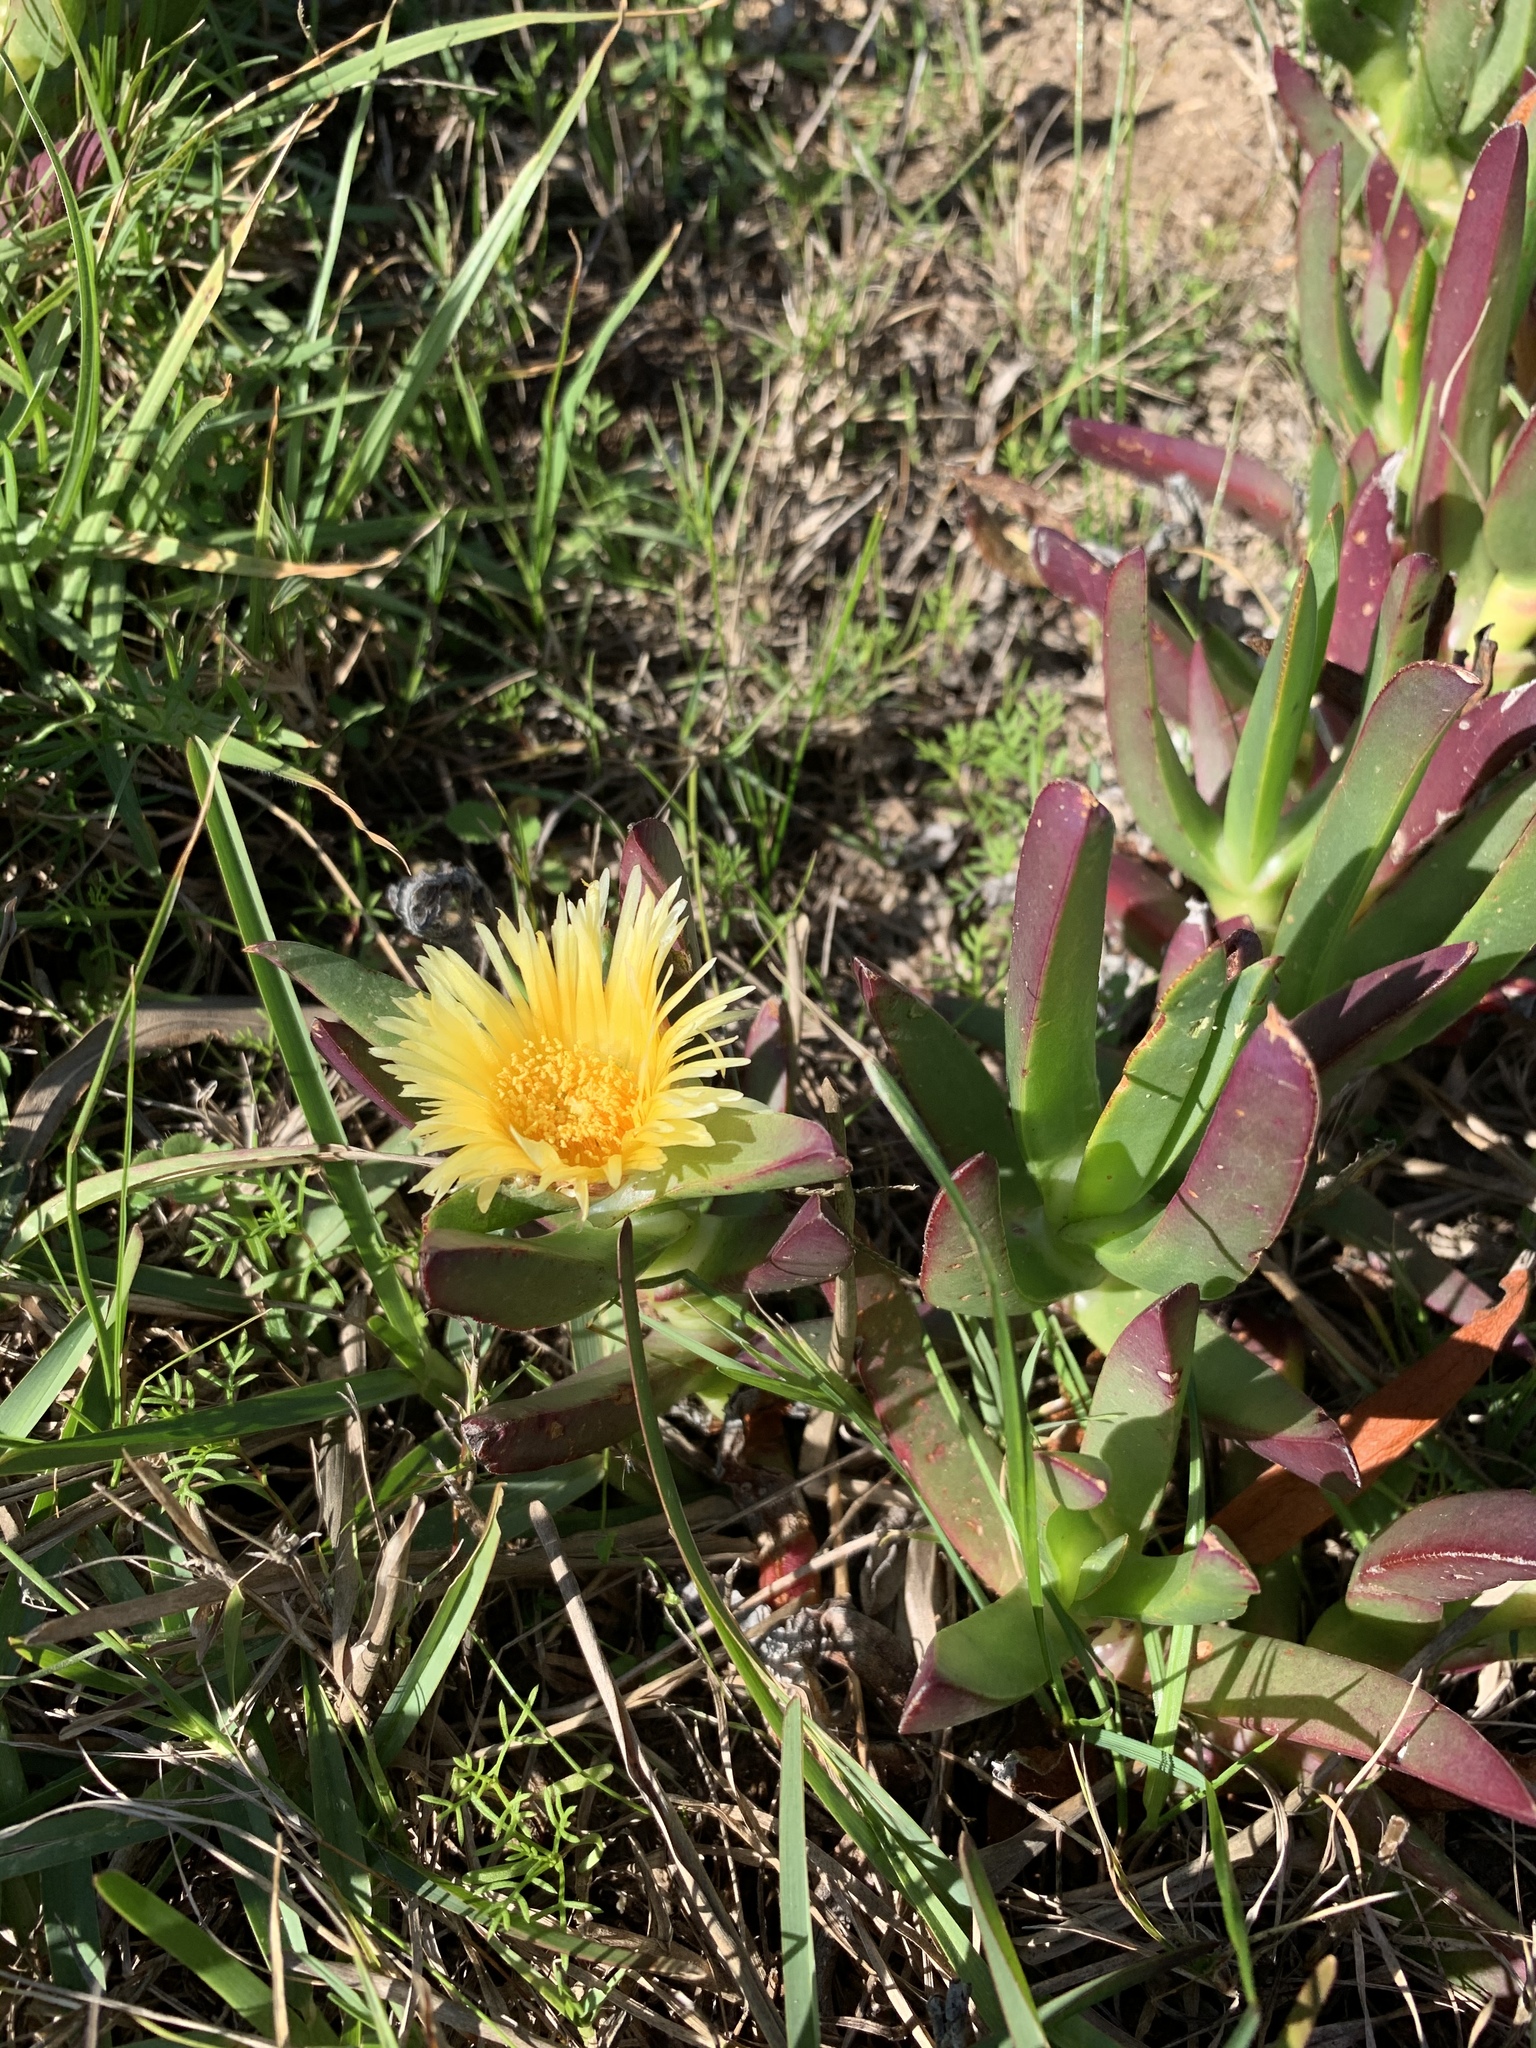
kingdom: Plantae
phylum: Tracheophyta
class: Magnoliopsida
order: Caryophyllales
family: Aizoaceae
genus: Carpobrotus
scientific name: Carpobrotus edulis
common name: Hottentot-fig
